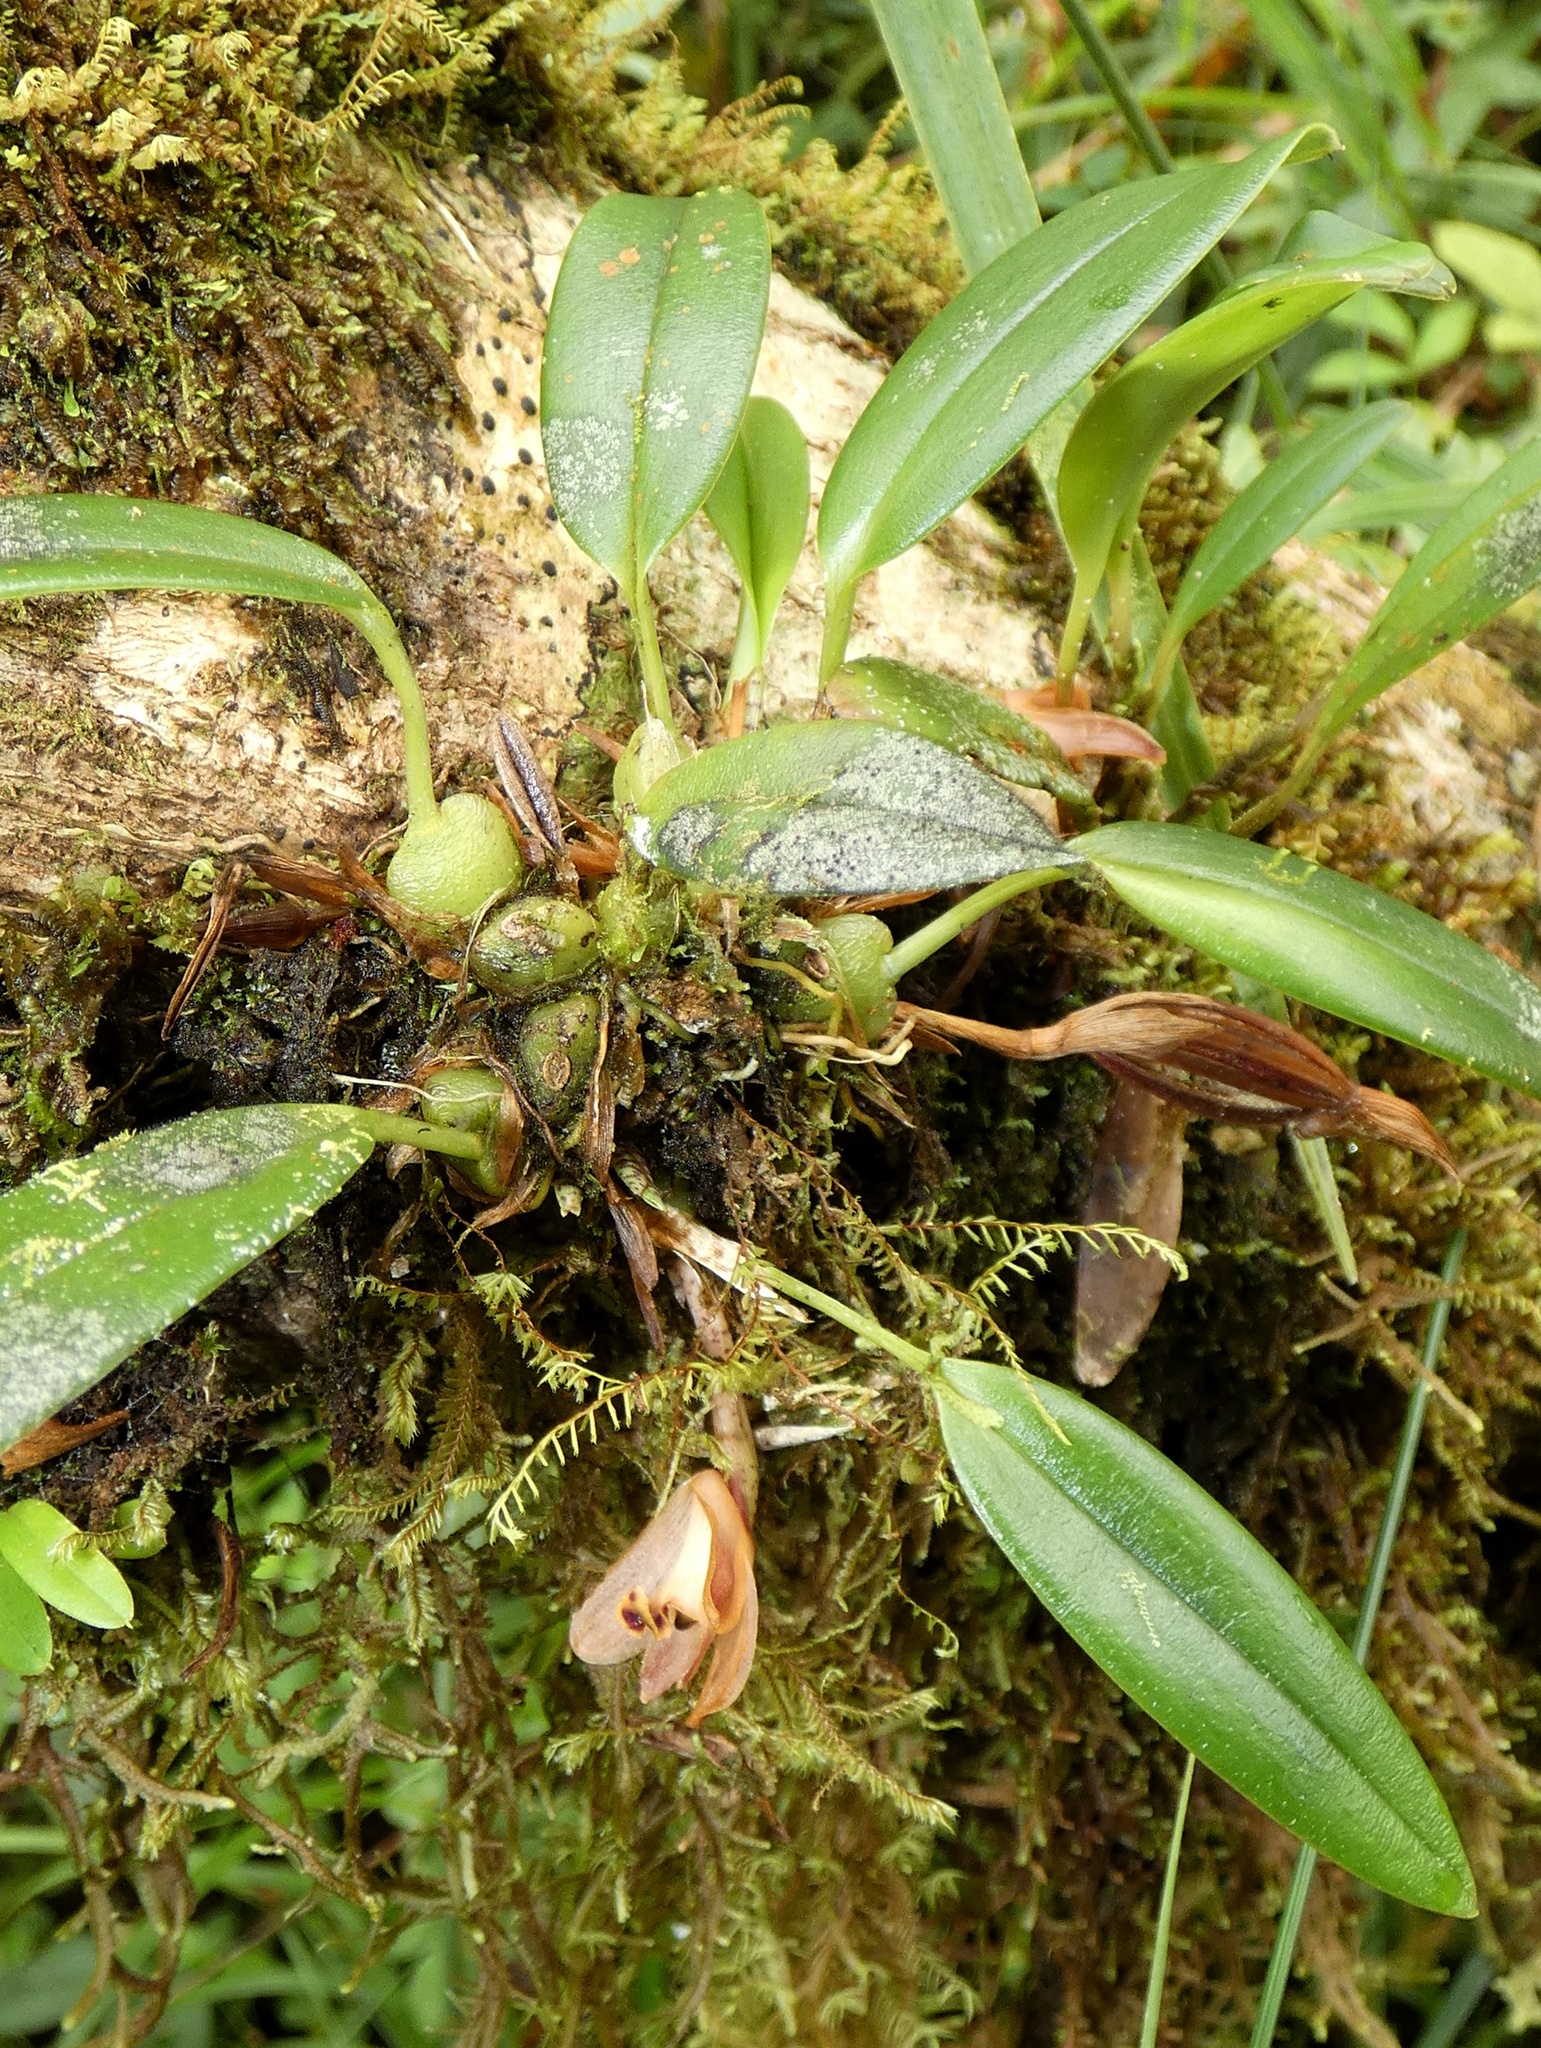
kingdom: Plantae
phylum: Tracheophyta
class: Liliopsida
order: Asparagales
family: Orchidaceae
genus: Maxillaria
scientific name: Maxillaria acostae
